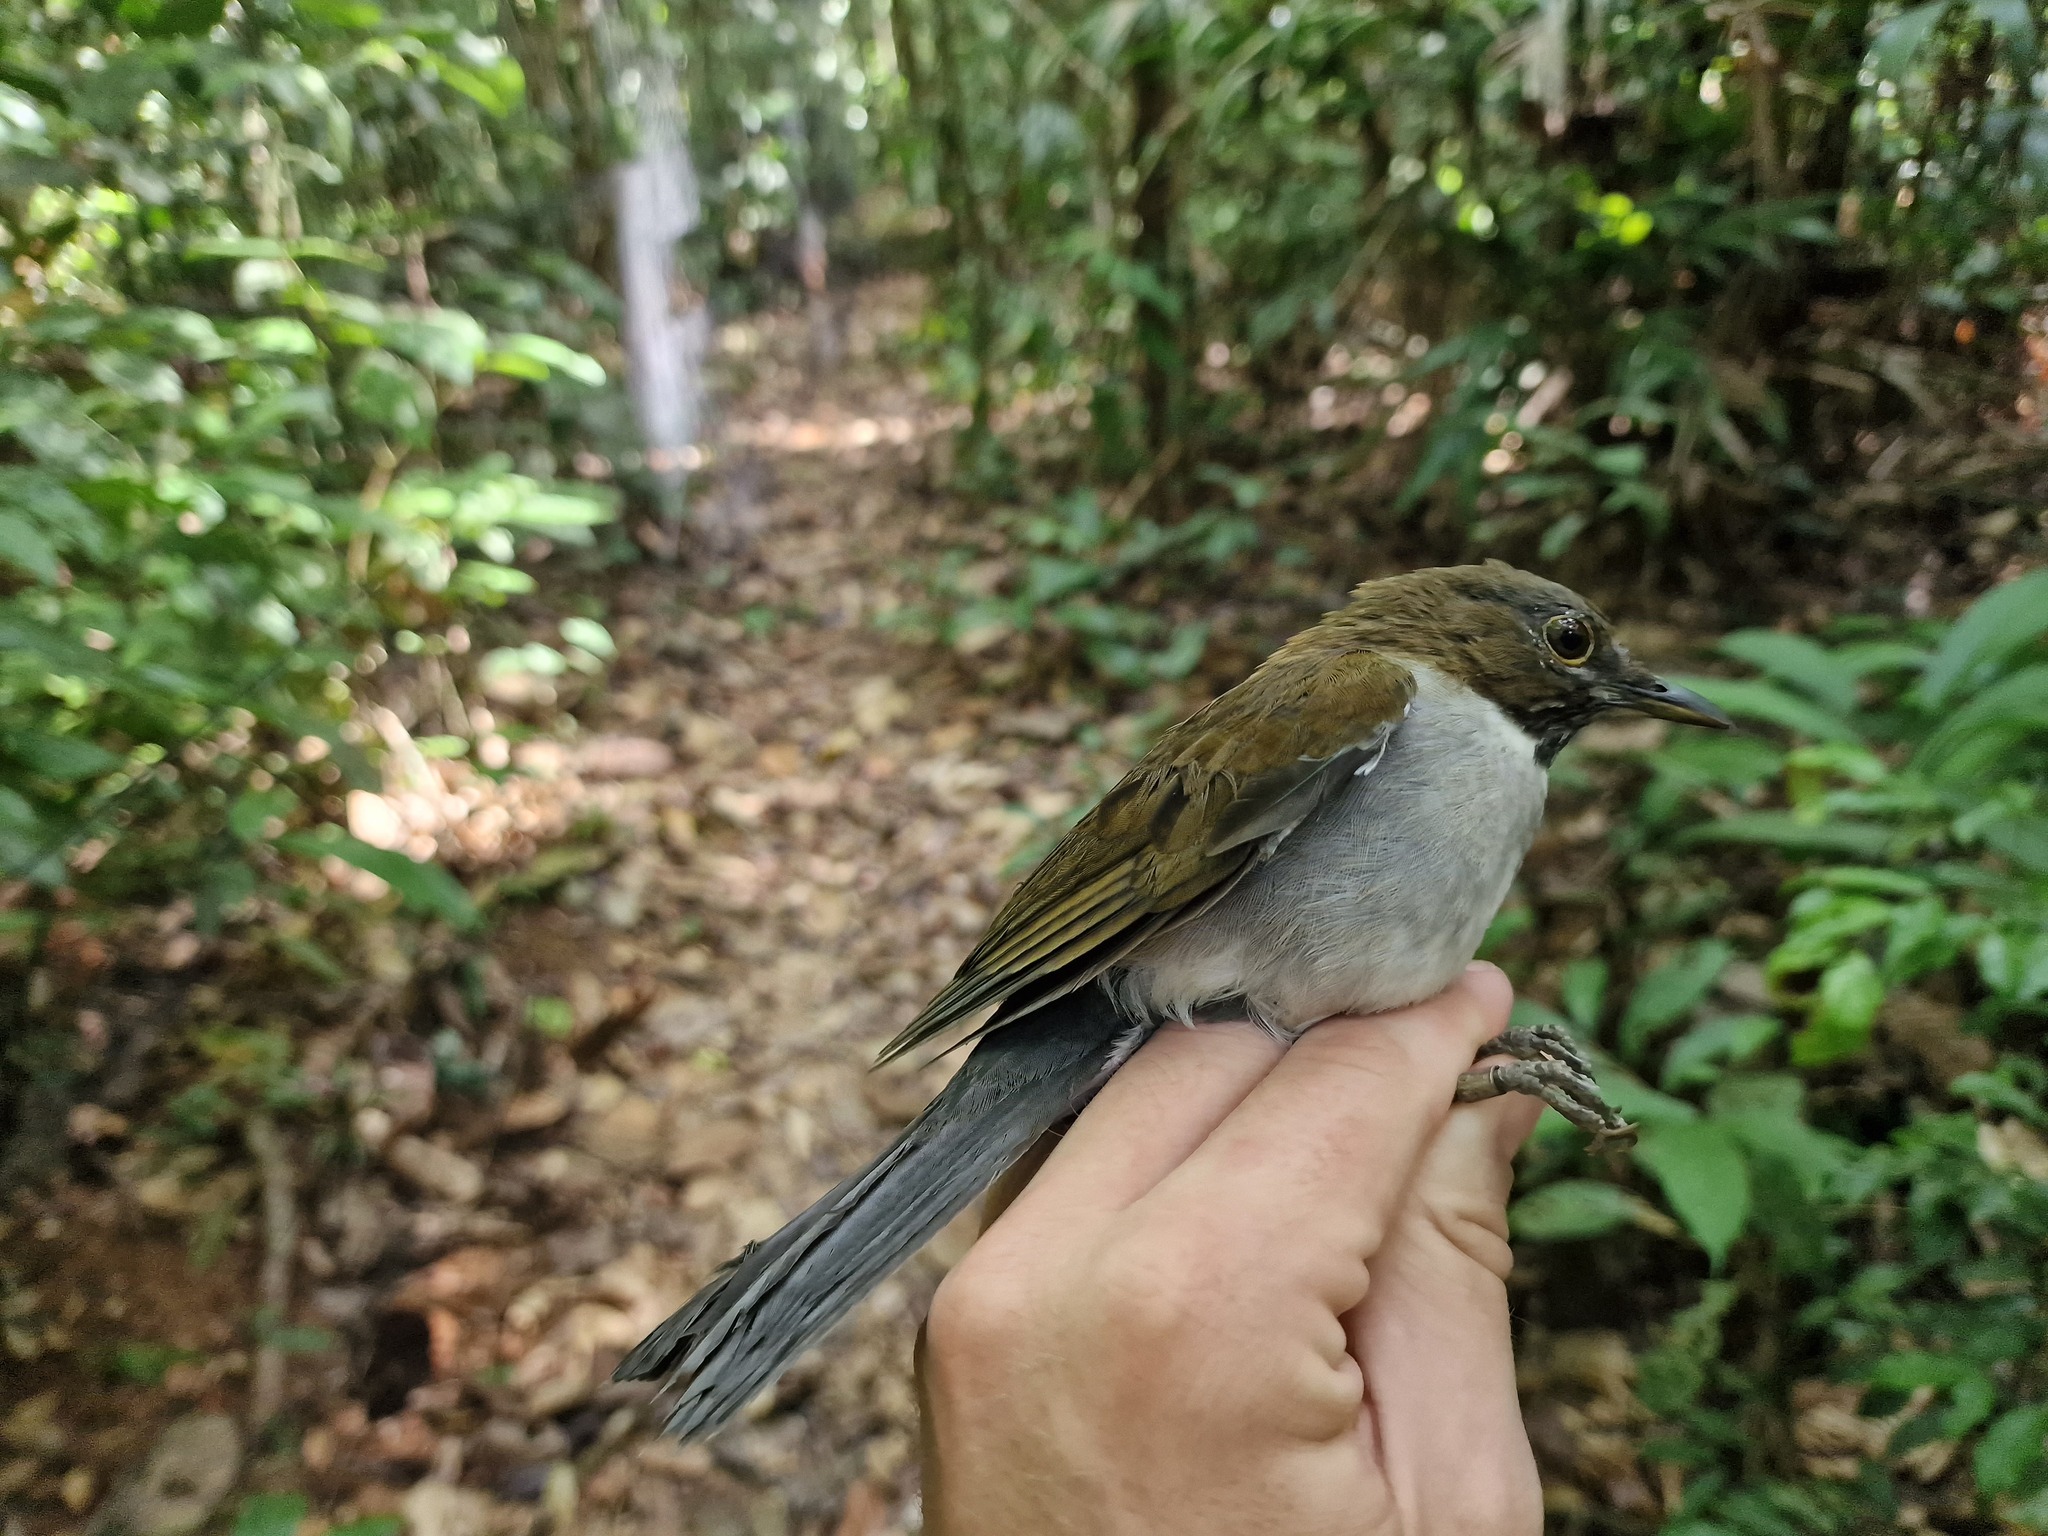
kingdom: Animalia
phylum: Chordata
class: Aves
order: Passeriformes
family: Turdidae
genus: Turdus
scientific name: Turdus albicollis
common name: White-necked thrush
